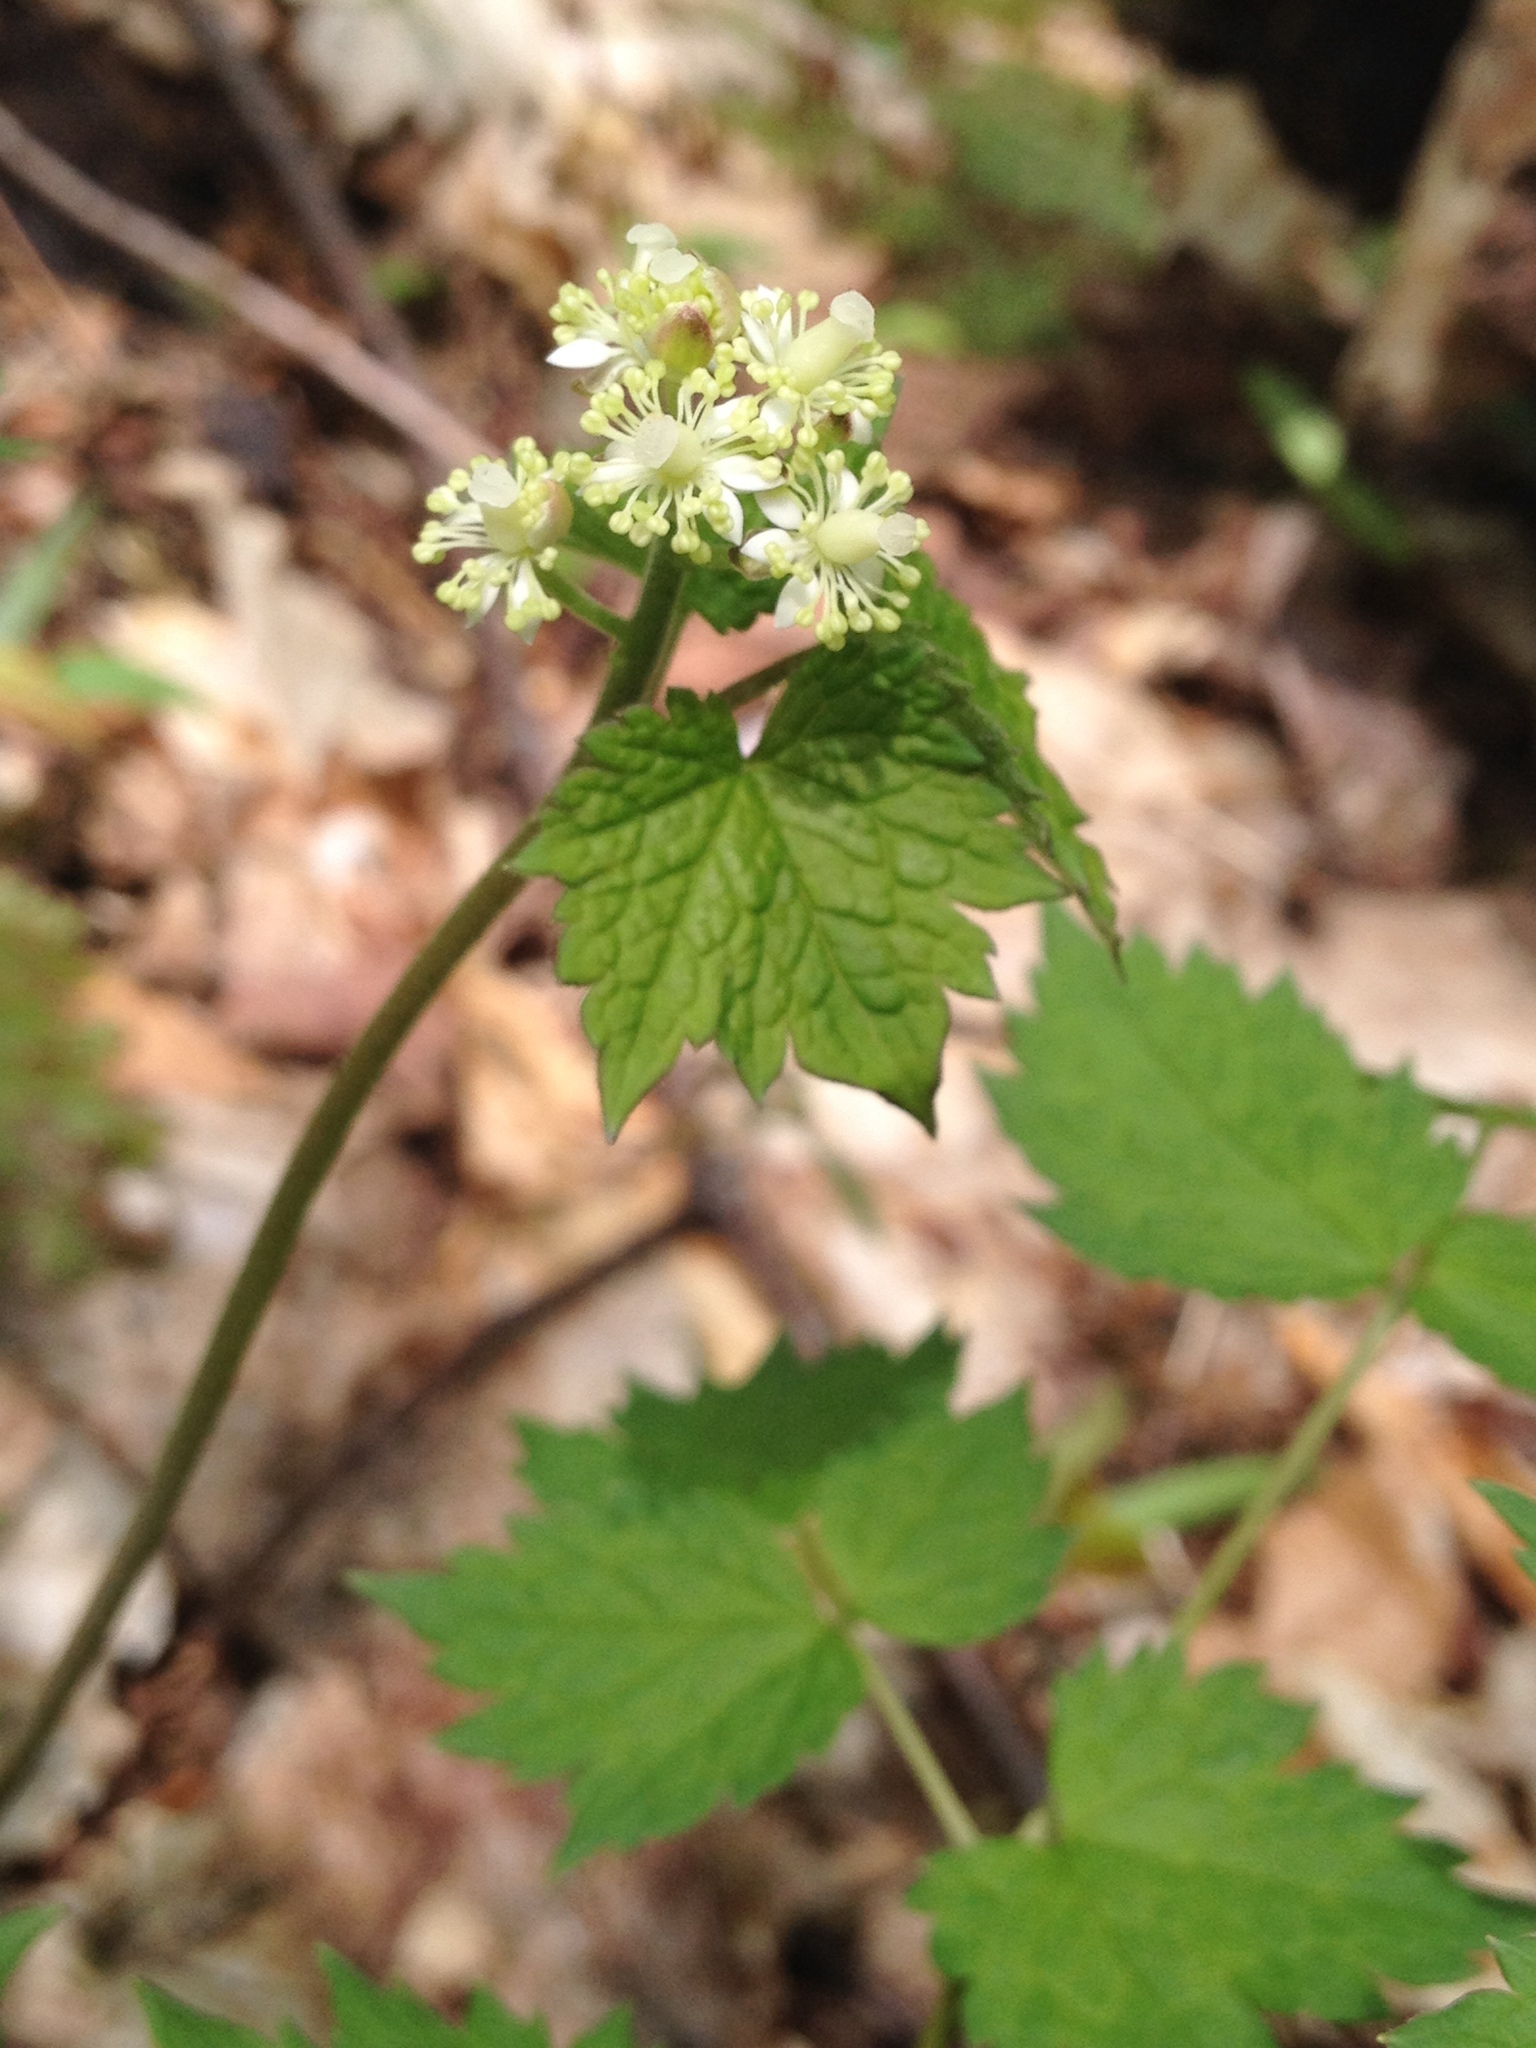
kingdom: Plantae
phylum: Tracheophyta
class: Magnoliopsida
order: Ranunculales
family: Ranunculaceae
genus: Actaea
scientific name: Actaea rubra
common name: Red baneberry
